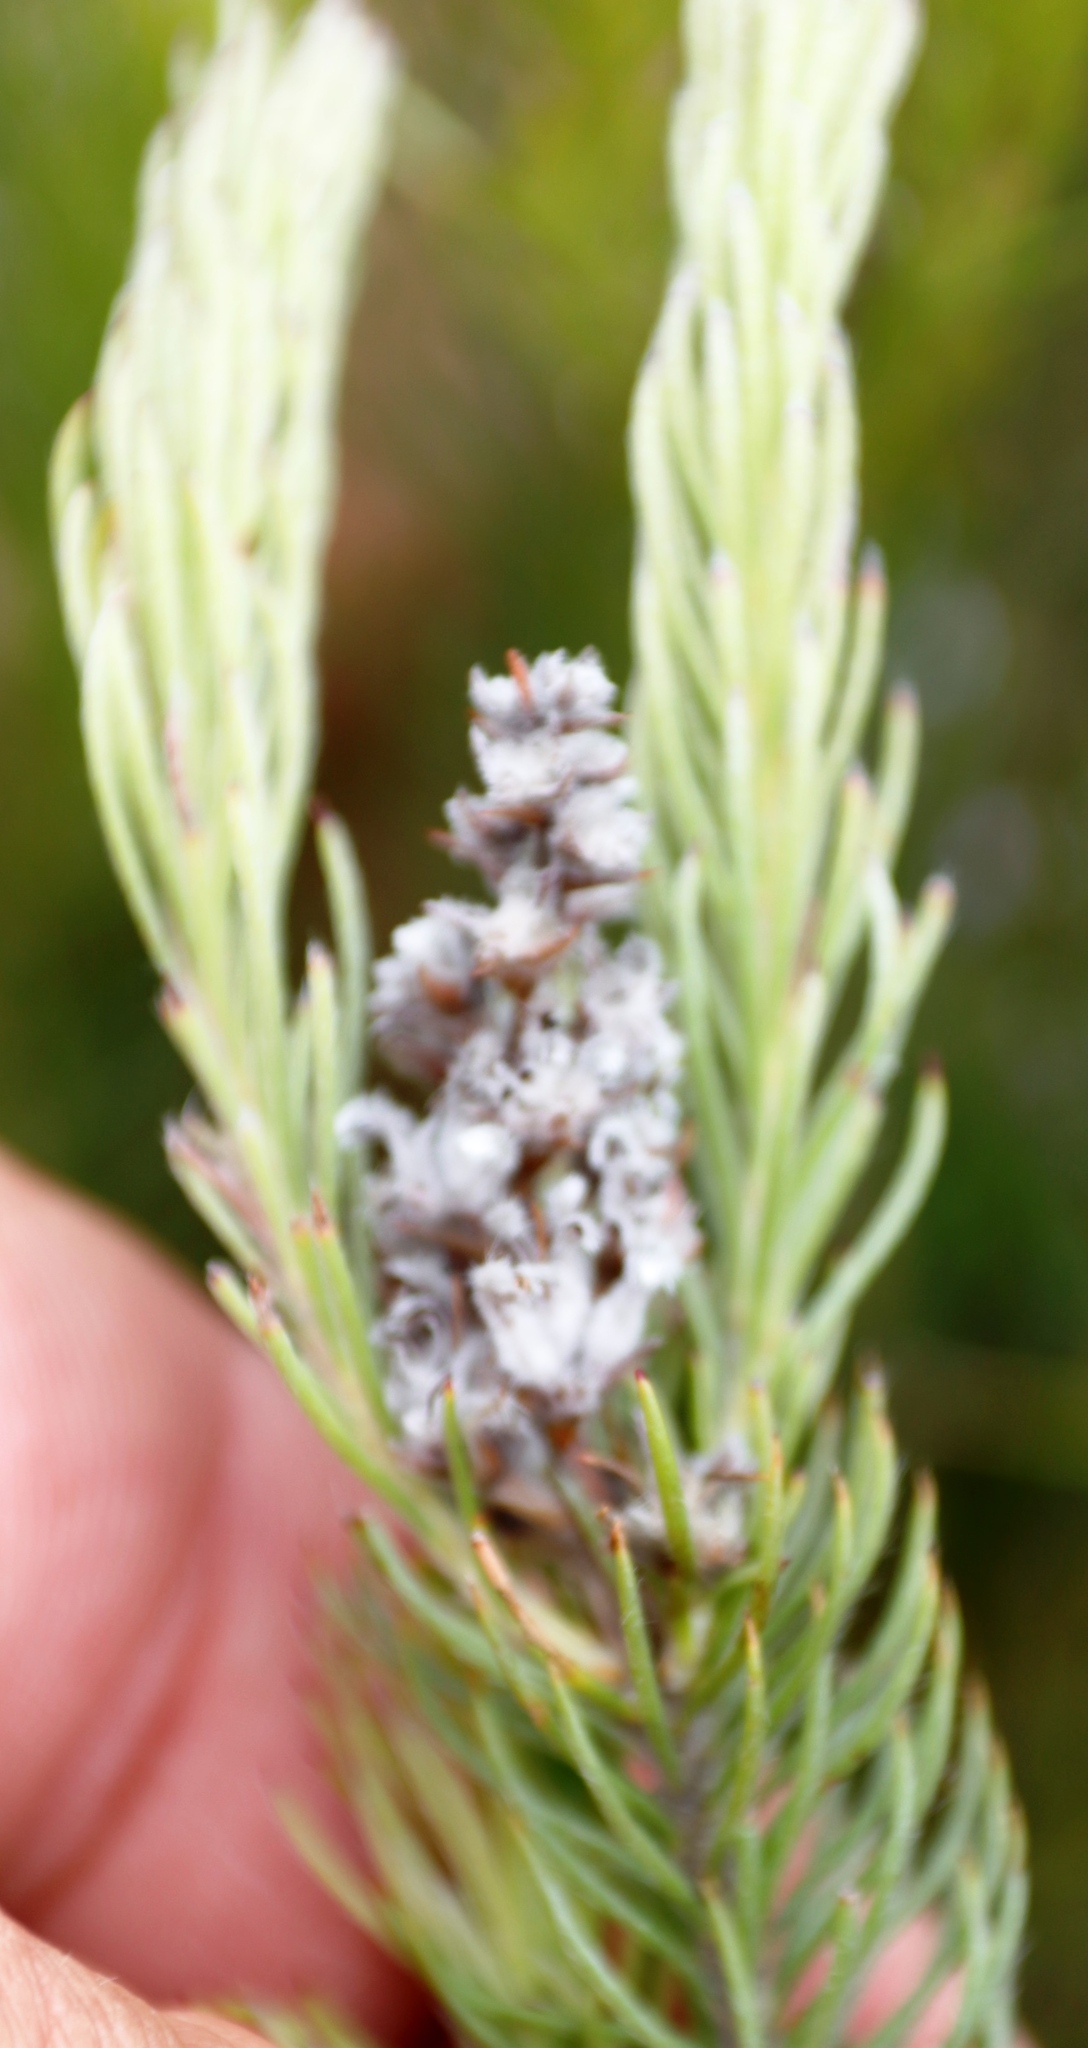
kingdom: Plantae
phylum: Tracheophyta
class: Magnoliopsida
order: Proteales
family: Proteaceae
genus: Spatalla
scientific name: Spatalla confusa
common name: Long-tube spoon
